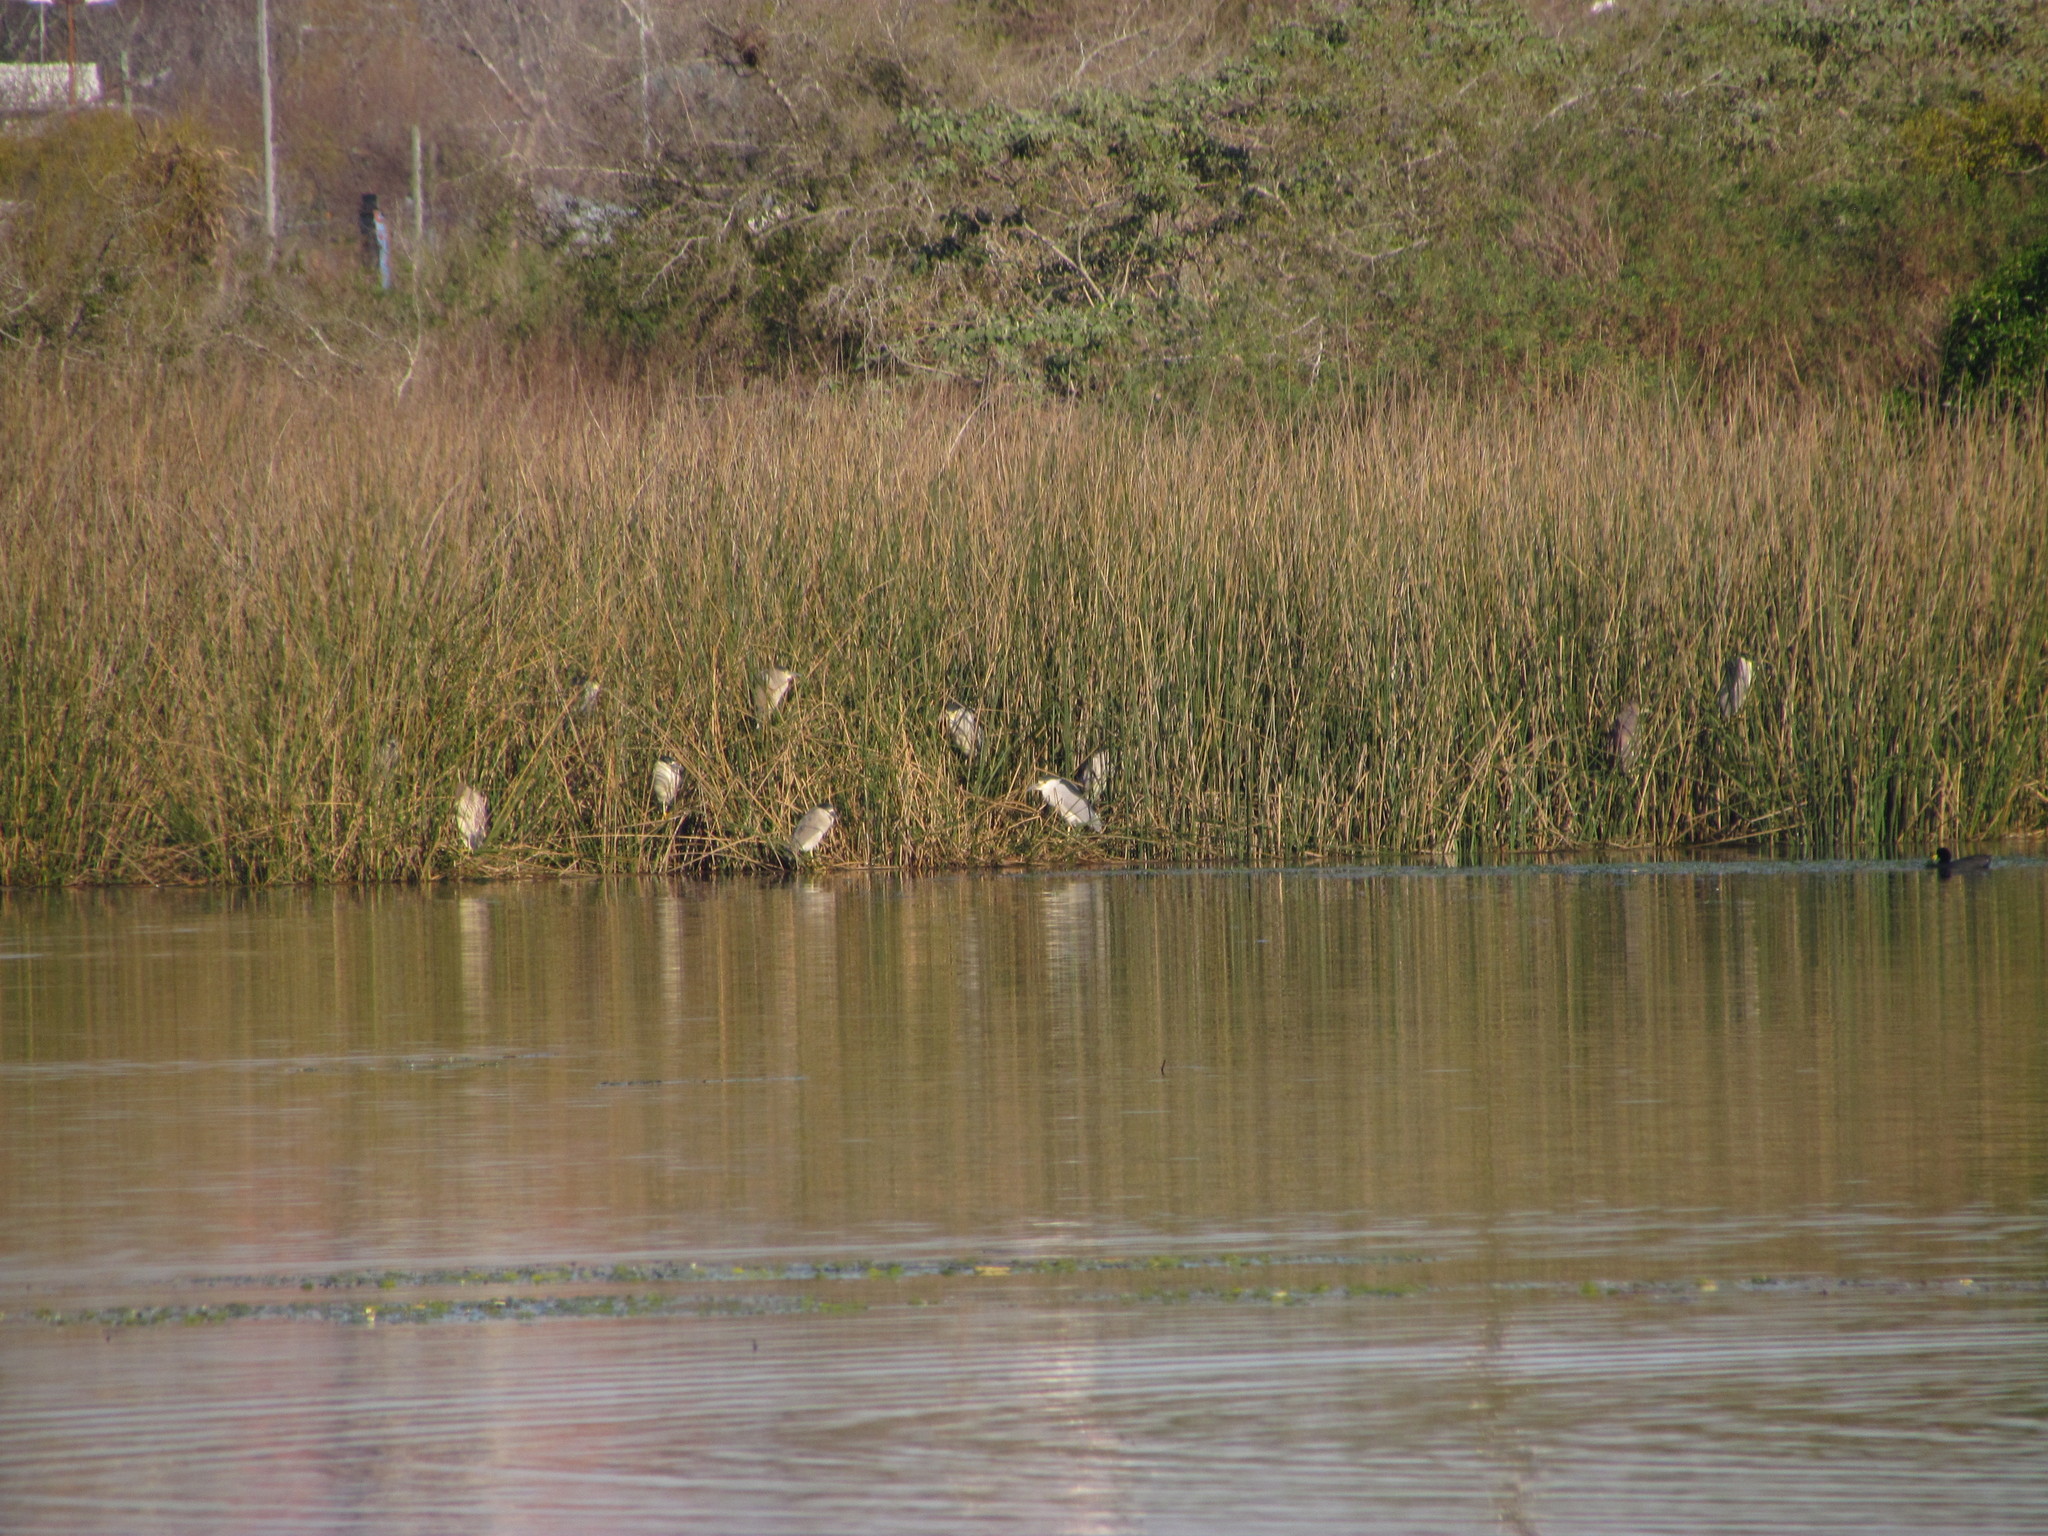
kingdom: Animalia
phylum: Chordata
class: Aves
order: Pelecaniformes
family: Ardeidae
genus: Nycticorax
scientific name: Nycticorax nycticorax
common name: Black-crowned night heron
